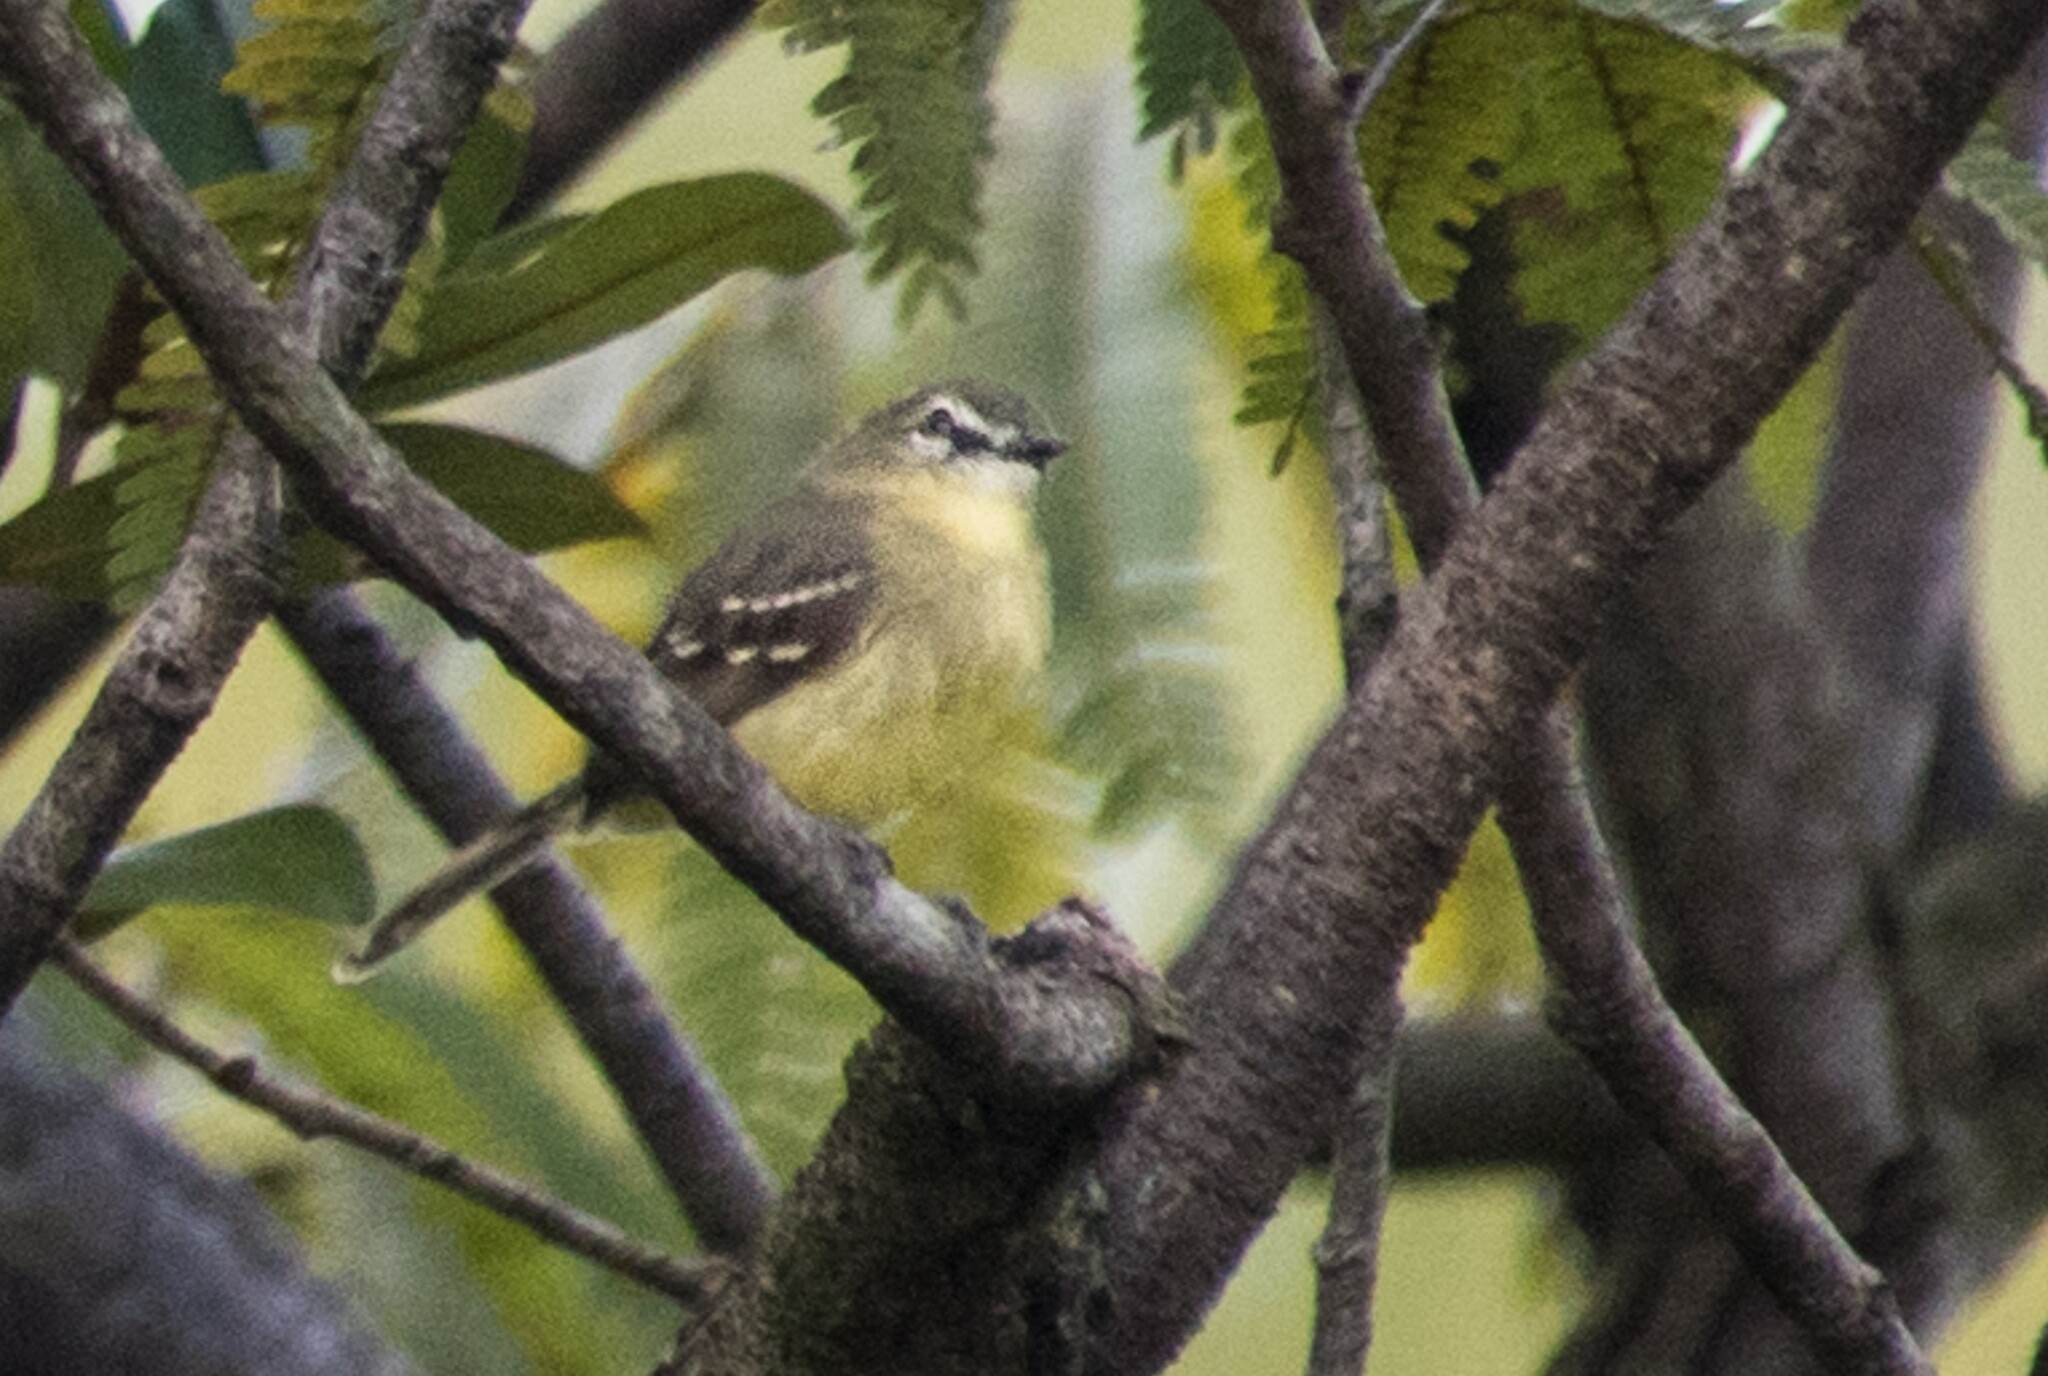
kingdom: Animalia
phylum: Chordata
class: Aves
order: Passeriformes
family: Tyrannidae
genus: Inezia
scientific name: Inezia subflava
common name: Amazonian inezia
